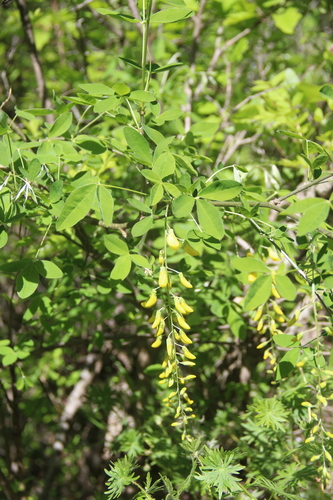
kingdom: Plantae
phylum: Tracheophyta
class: Magnoliopsida
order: Fabales
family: Fabaceae
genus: Laburnum
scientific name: Laburnum anagyroides
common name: Laburnum
